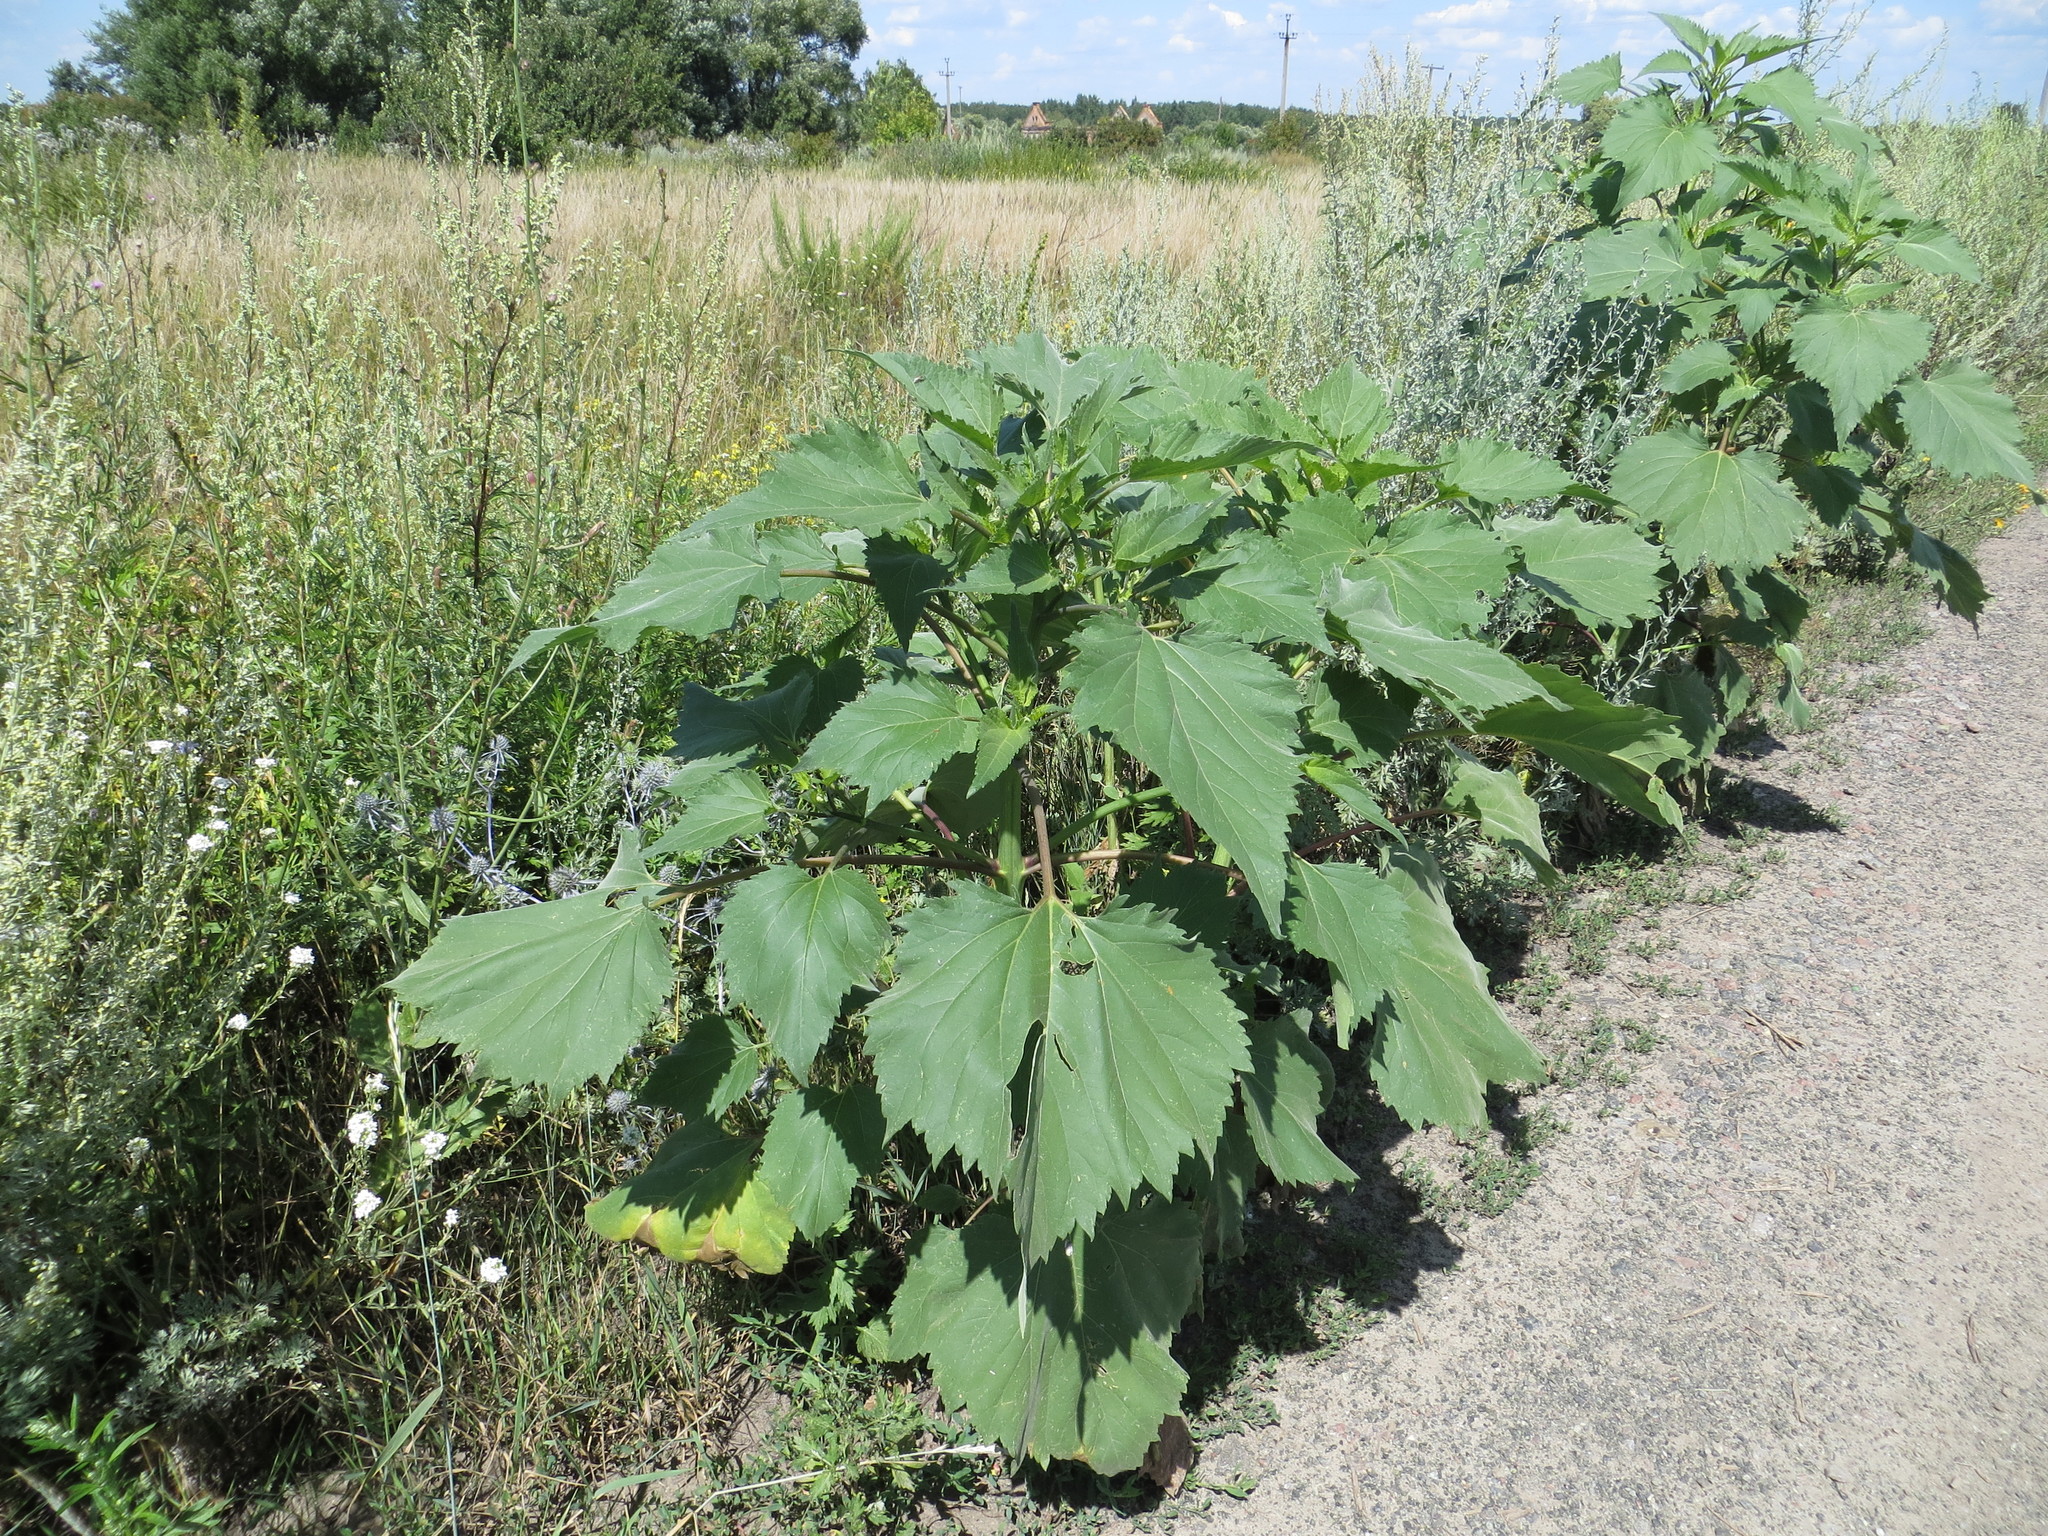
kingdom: Plantae
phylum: Tracheophyta
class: Magnoliopsida
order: Asterales
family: Asteraceae
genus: Cyclachaena
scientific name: Cyclachaena xanthiifolia
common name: Giant sumpweed
